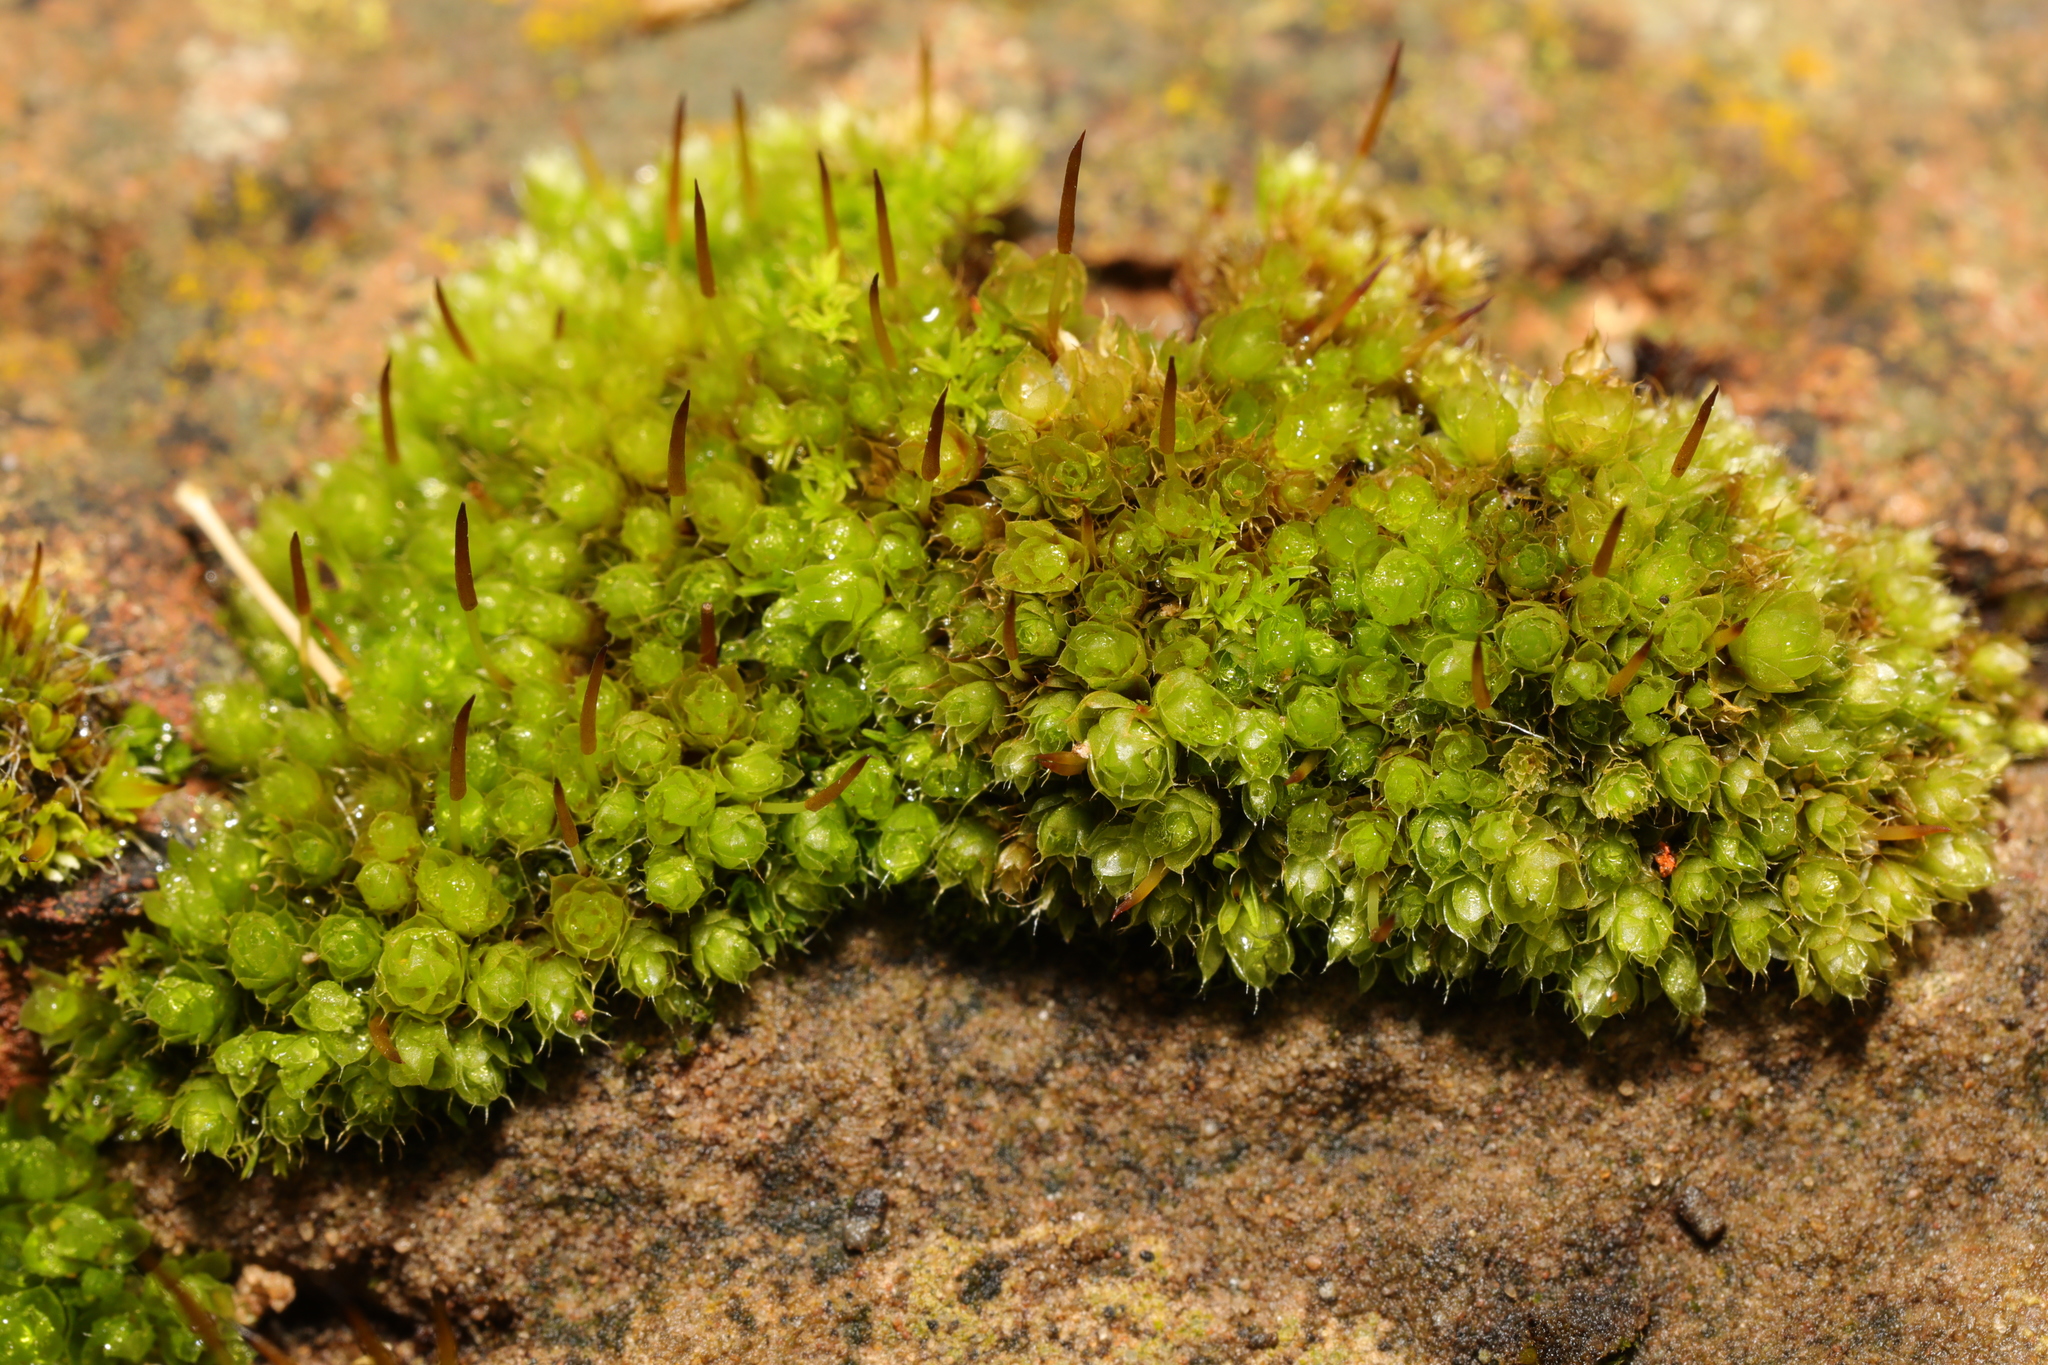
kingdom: Plantae
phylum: Bryophyta
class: Bryopsida
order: Bryales
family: Bryaceae
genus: Rosulabryum
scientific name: Rosulabryum capillare
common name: Capillary thread-moss
